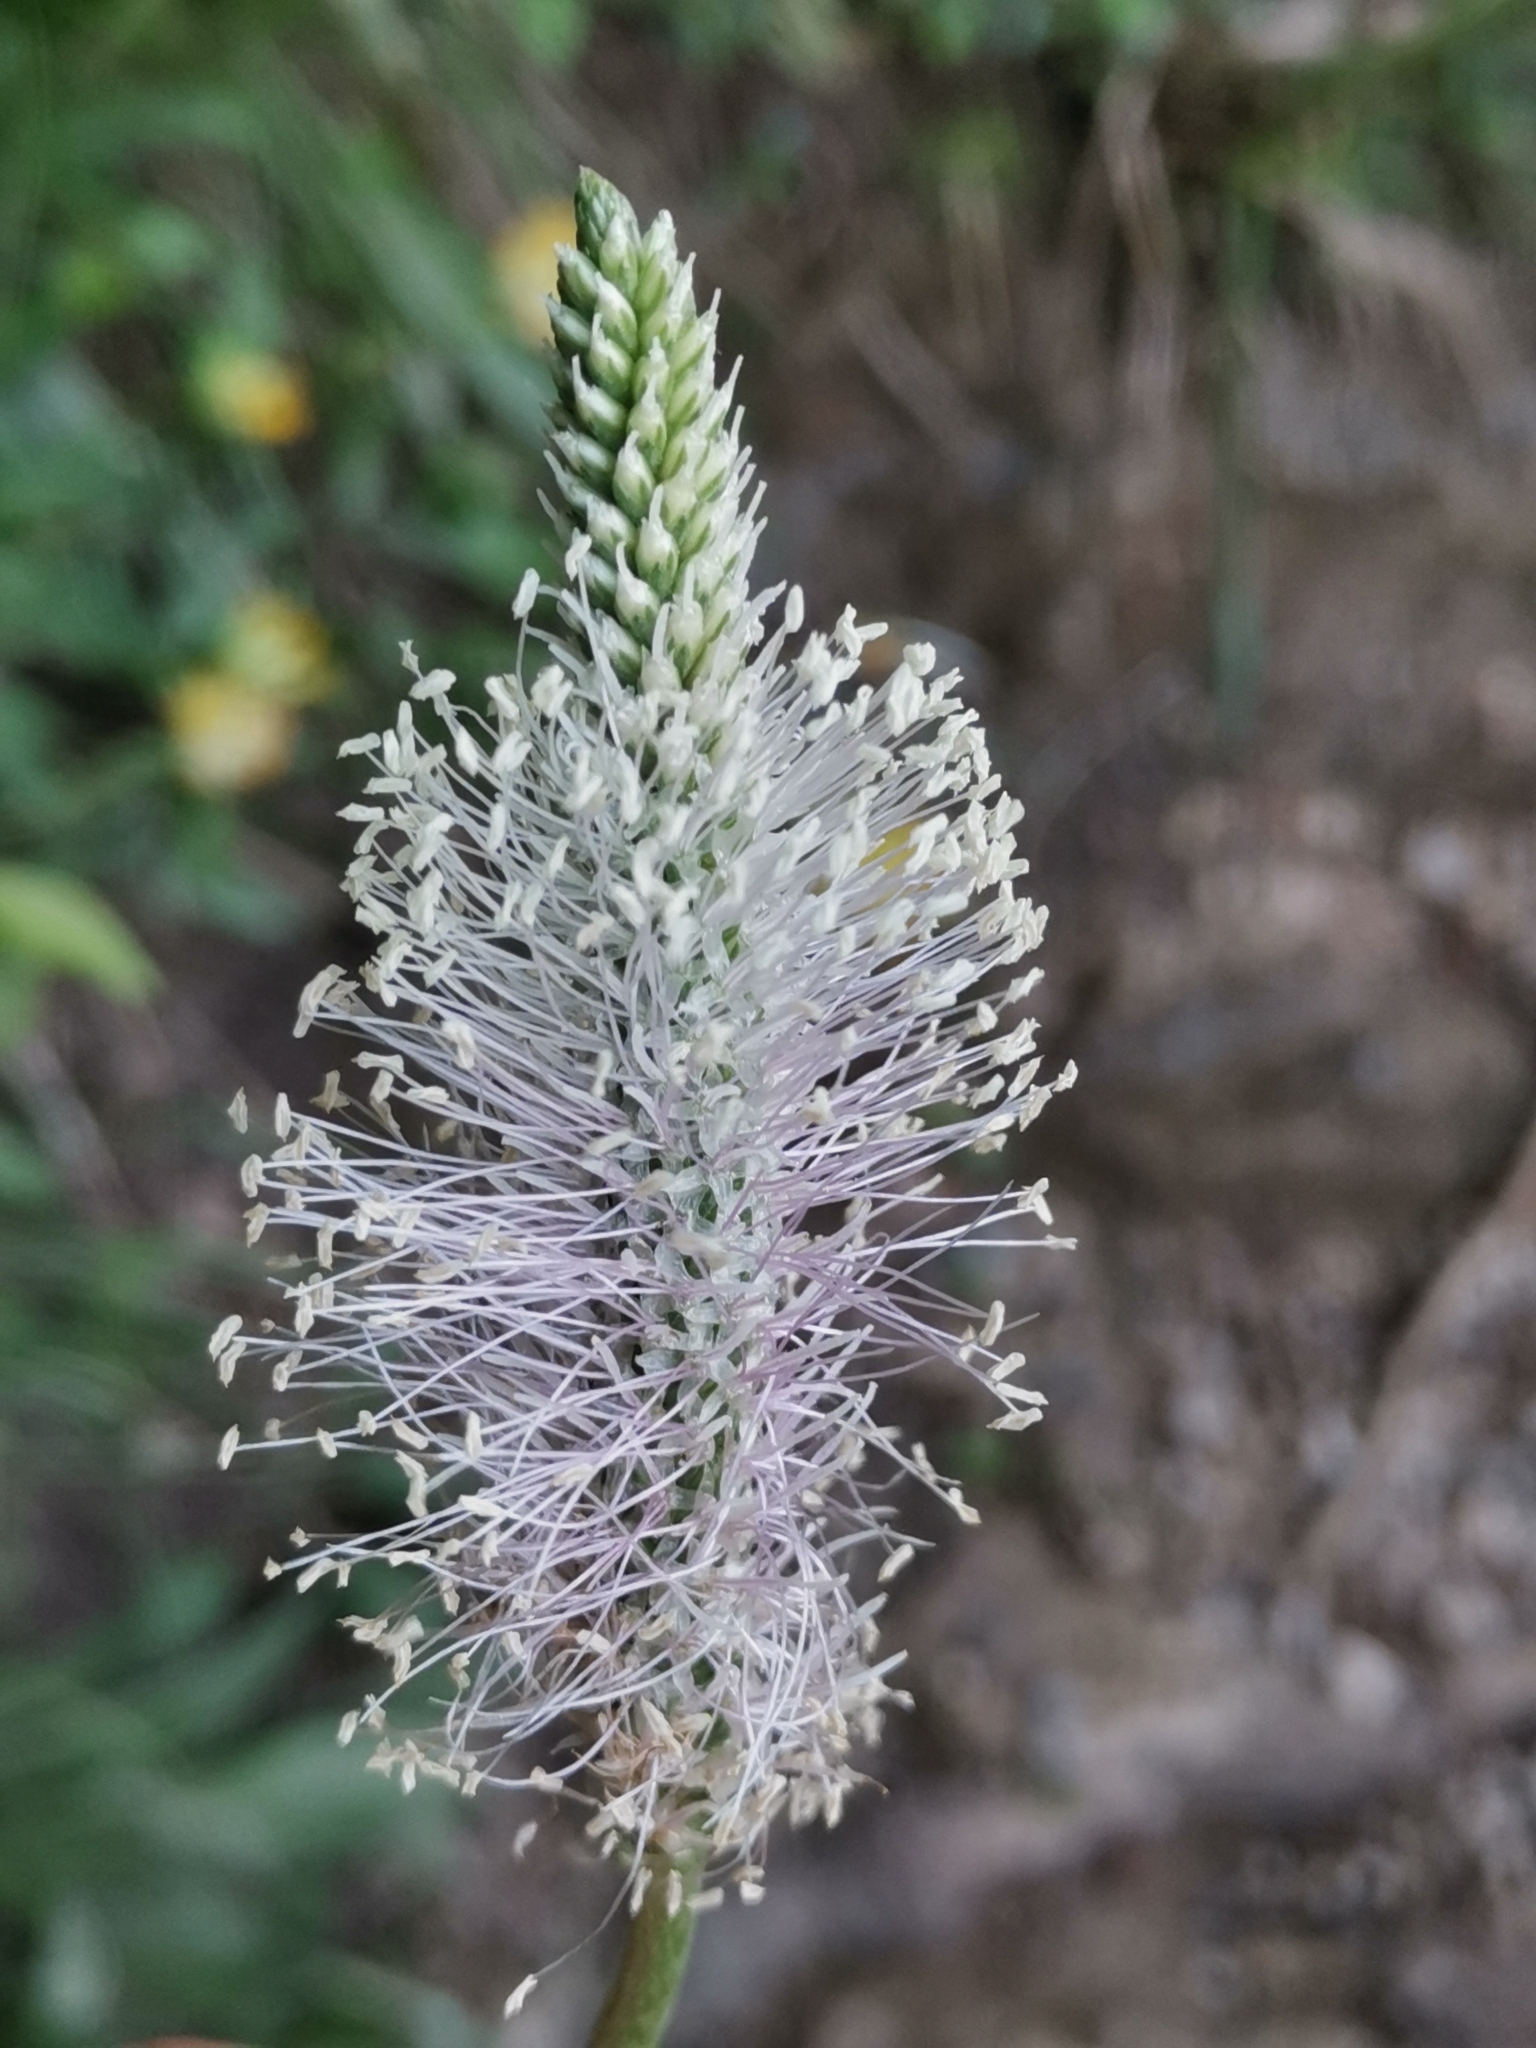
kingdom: Plantae
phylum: Tracheophyta
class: Magnoliopsida
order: Lamiales
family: Plantaginaceae
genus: Plantago
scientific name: Plantago media
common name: Hoary plantain
